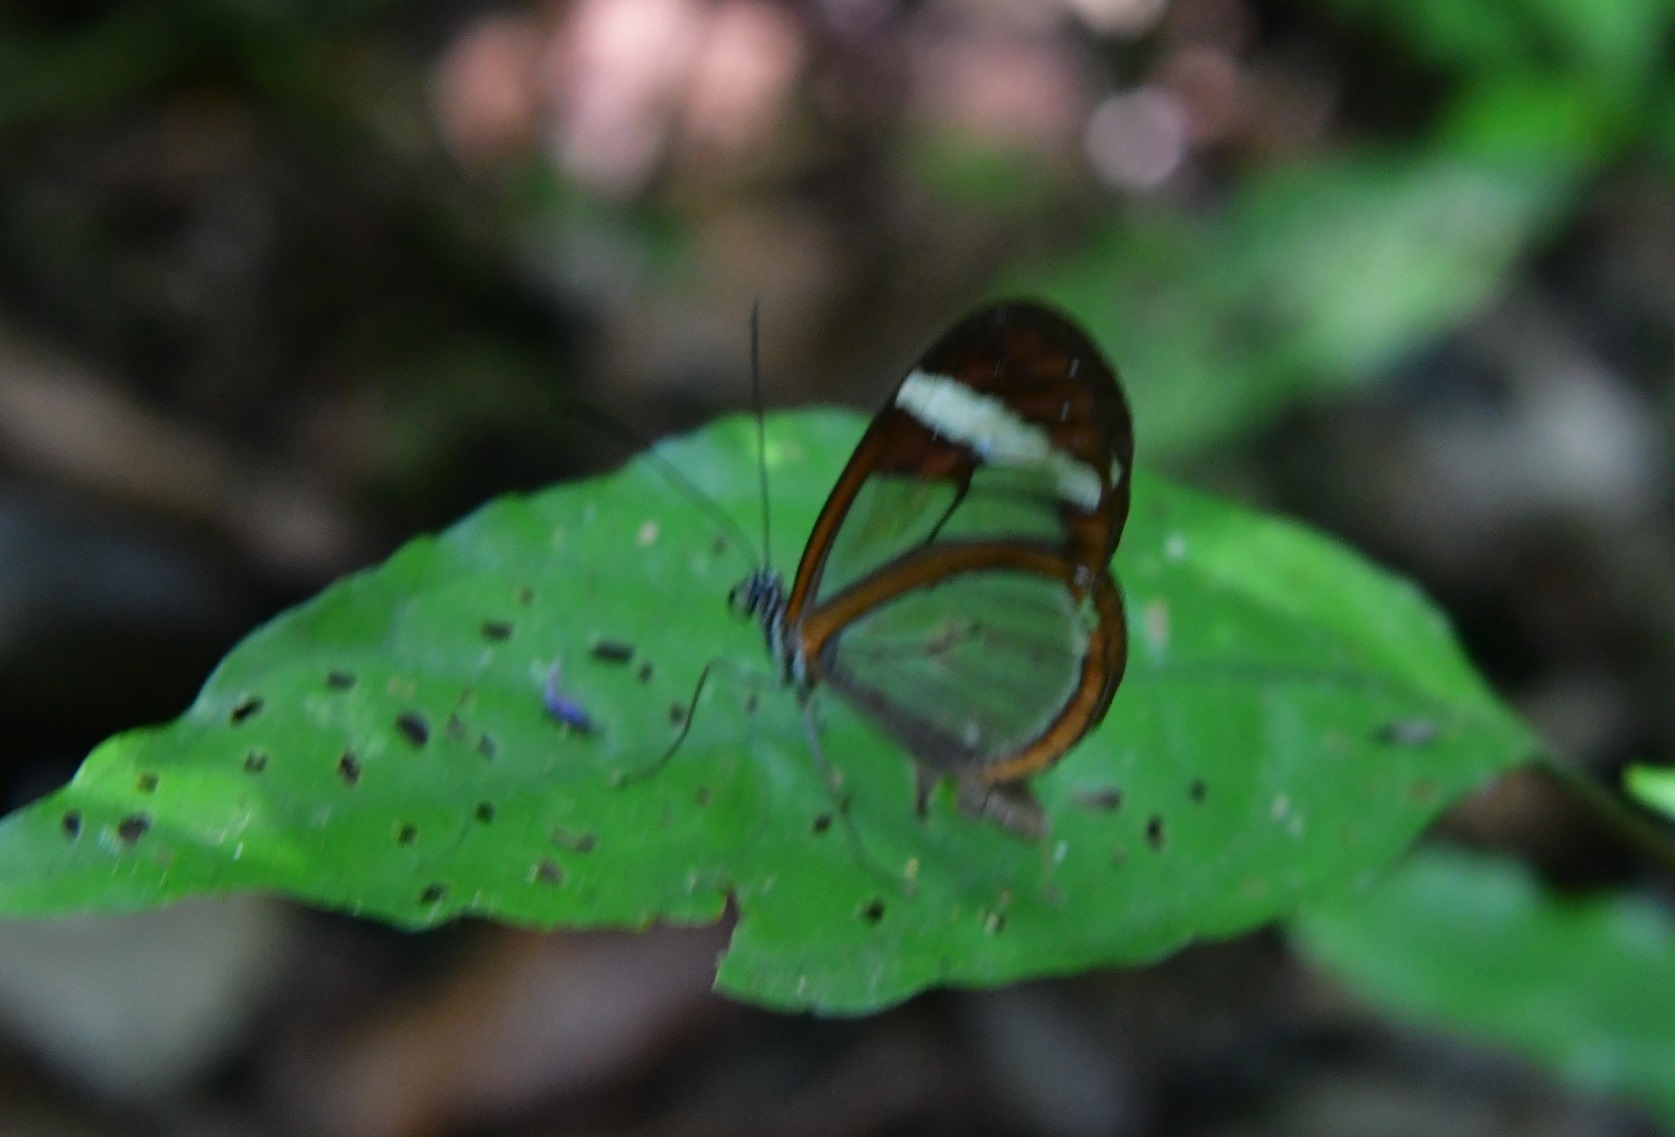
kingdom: Animalia
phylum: Arthropoda
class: Insecta
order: Lepidoptera
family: Nymphalidae
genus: Oleria
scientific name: Oleria paula
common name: Paula's clearwing
